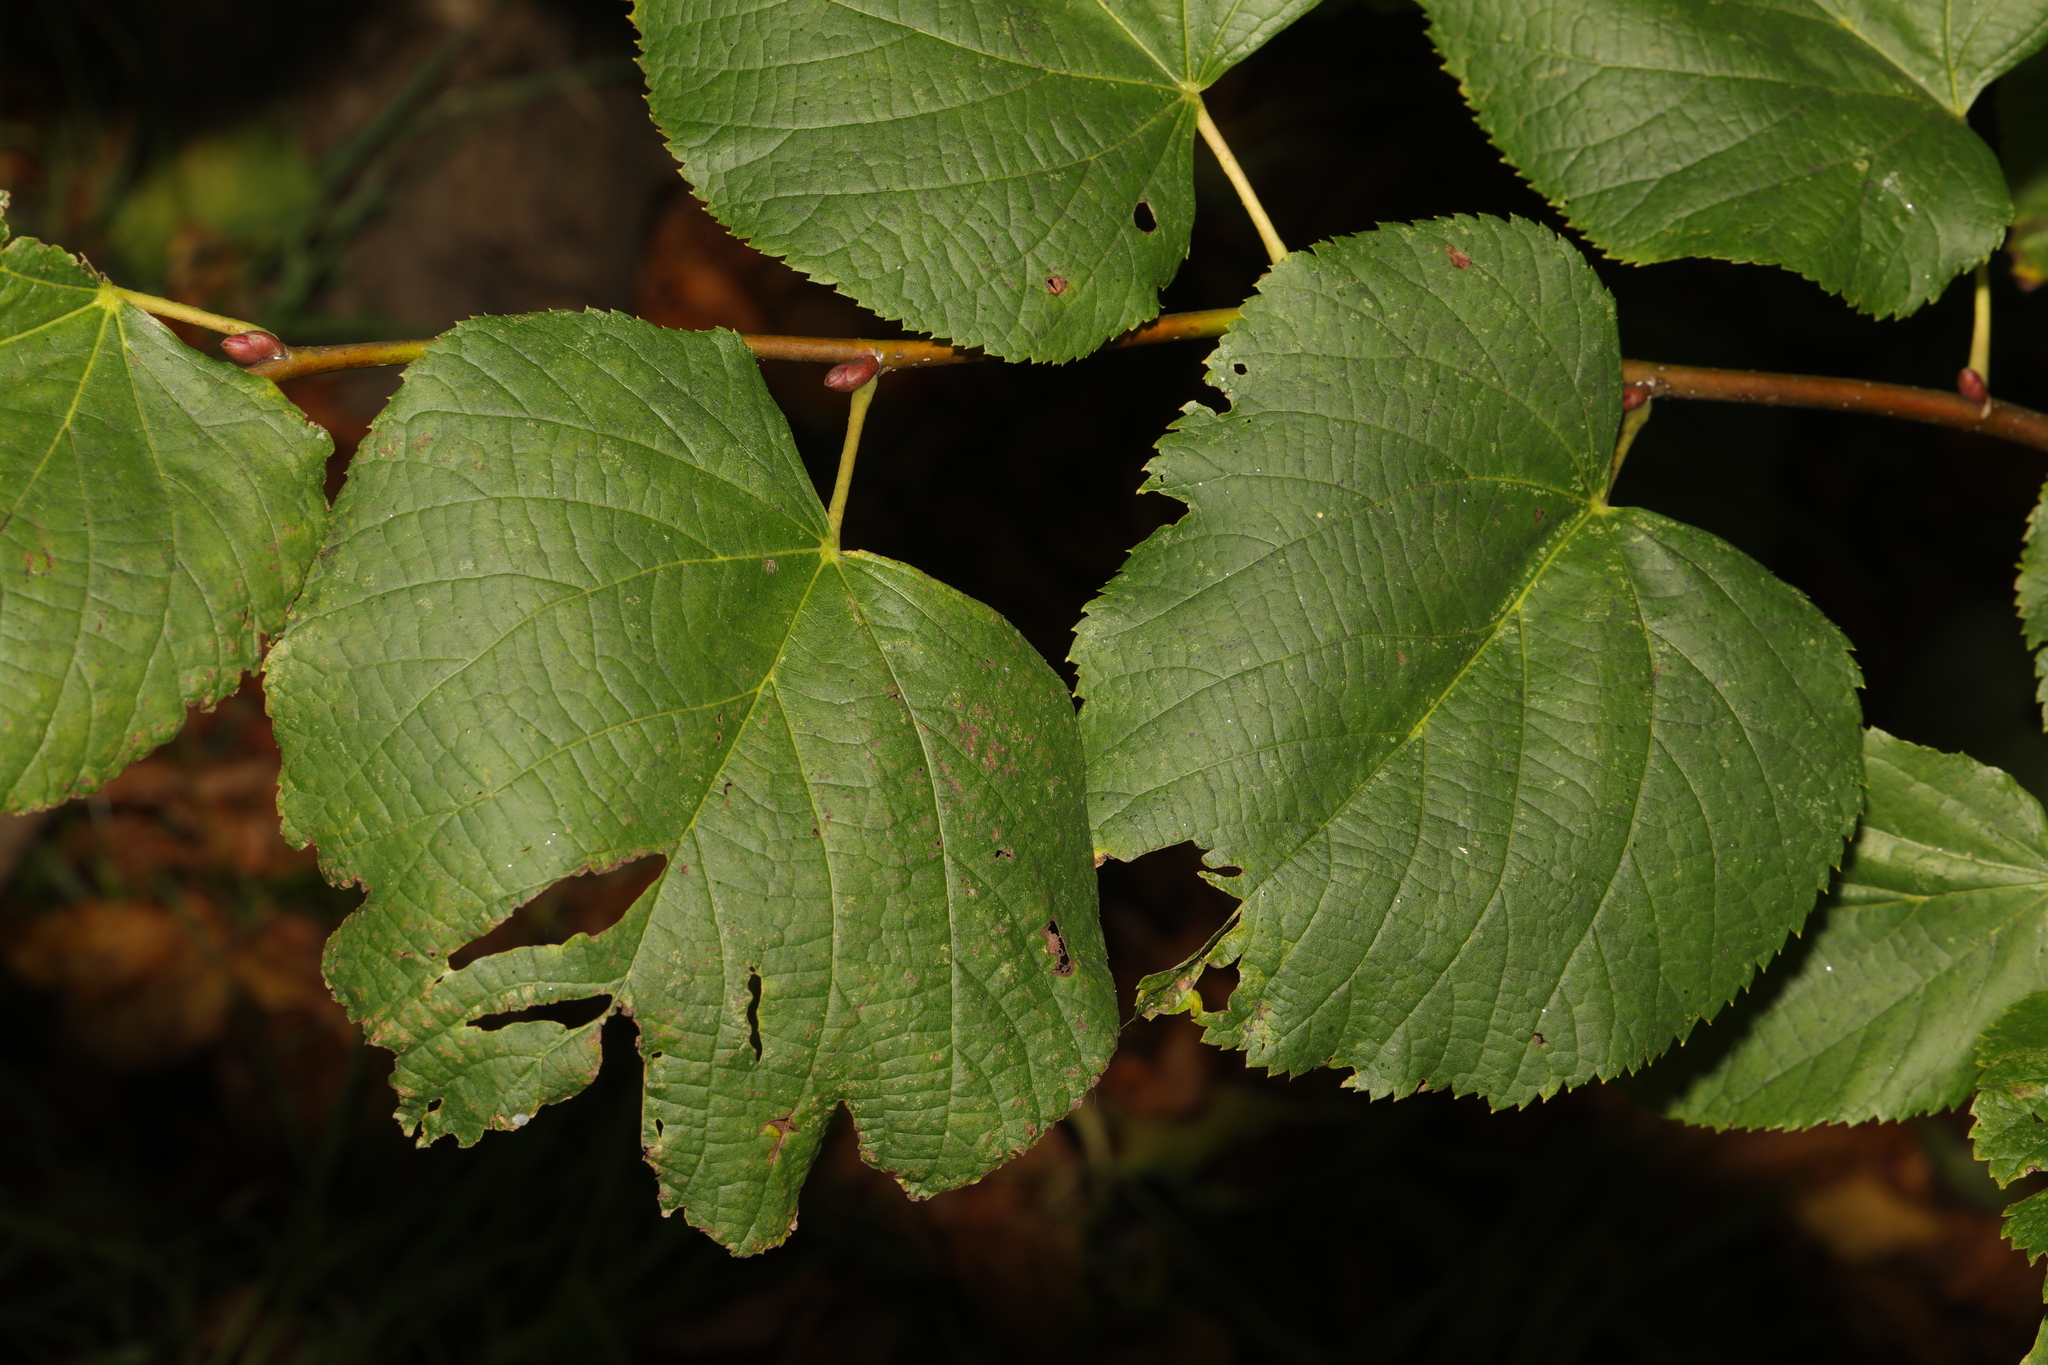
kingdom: Plantae
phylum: Tracheophyta
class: Magnoliopsida
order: Malvales
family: Malvaceae
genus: Tilia
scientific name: Tilia europaea
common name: European linden
